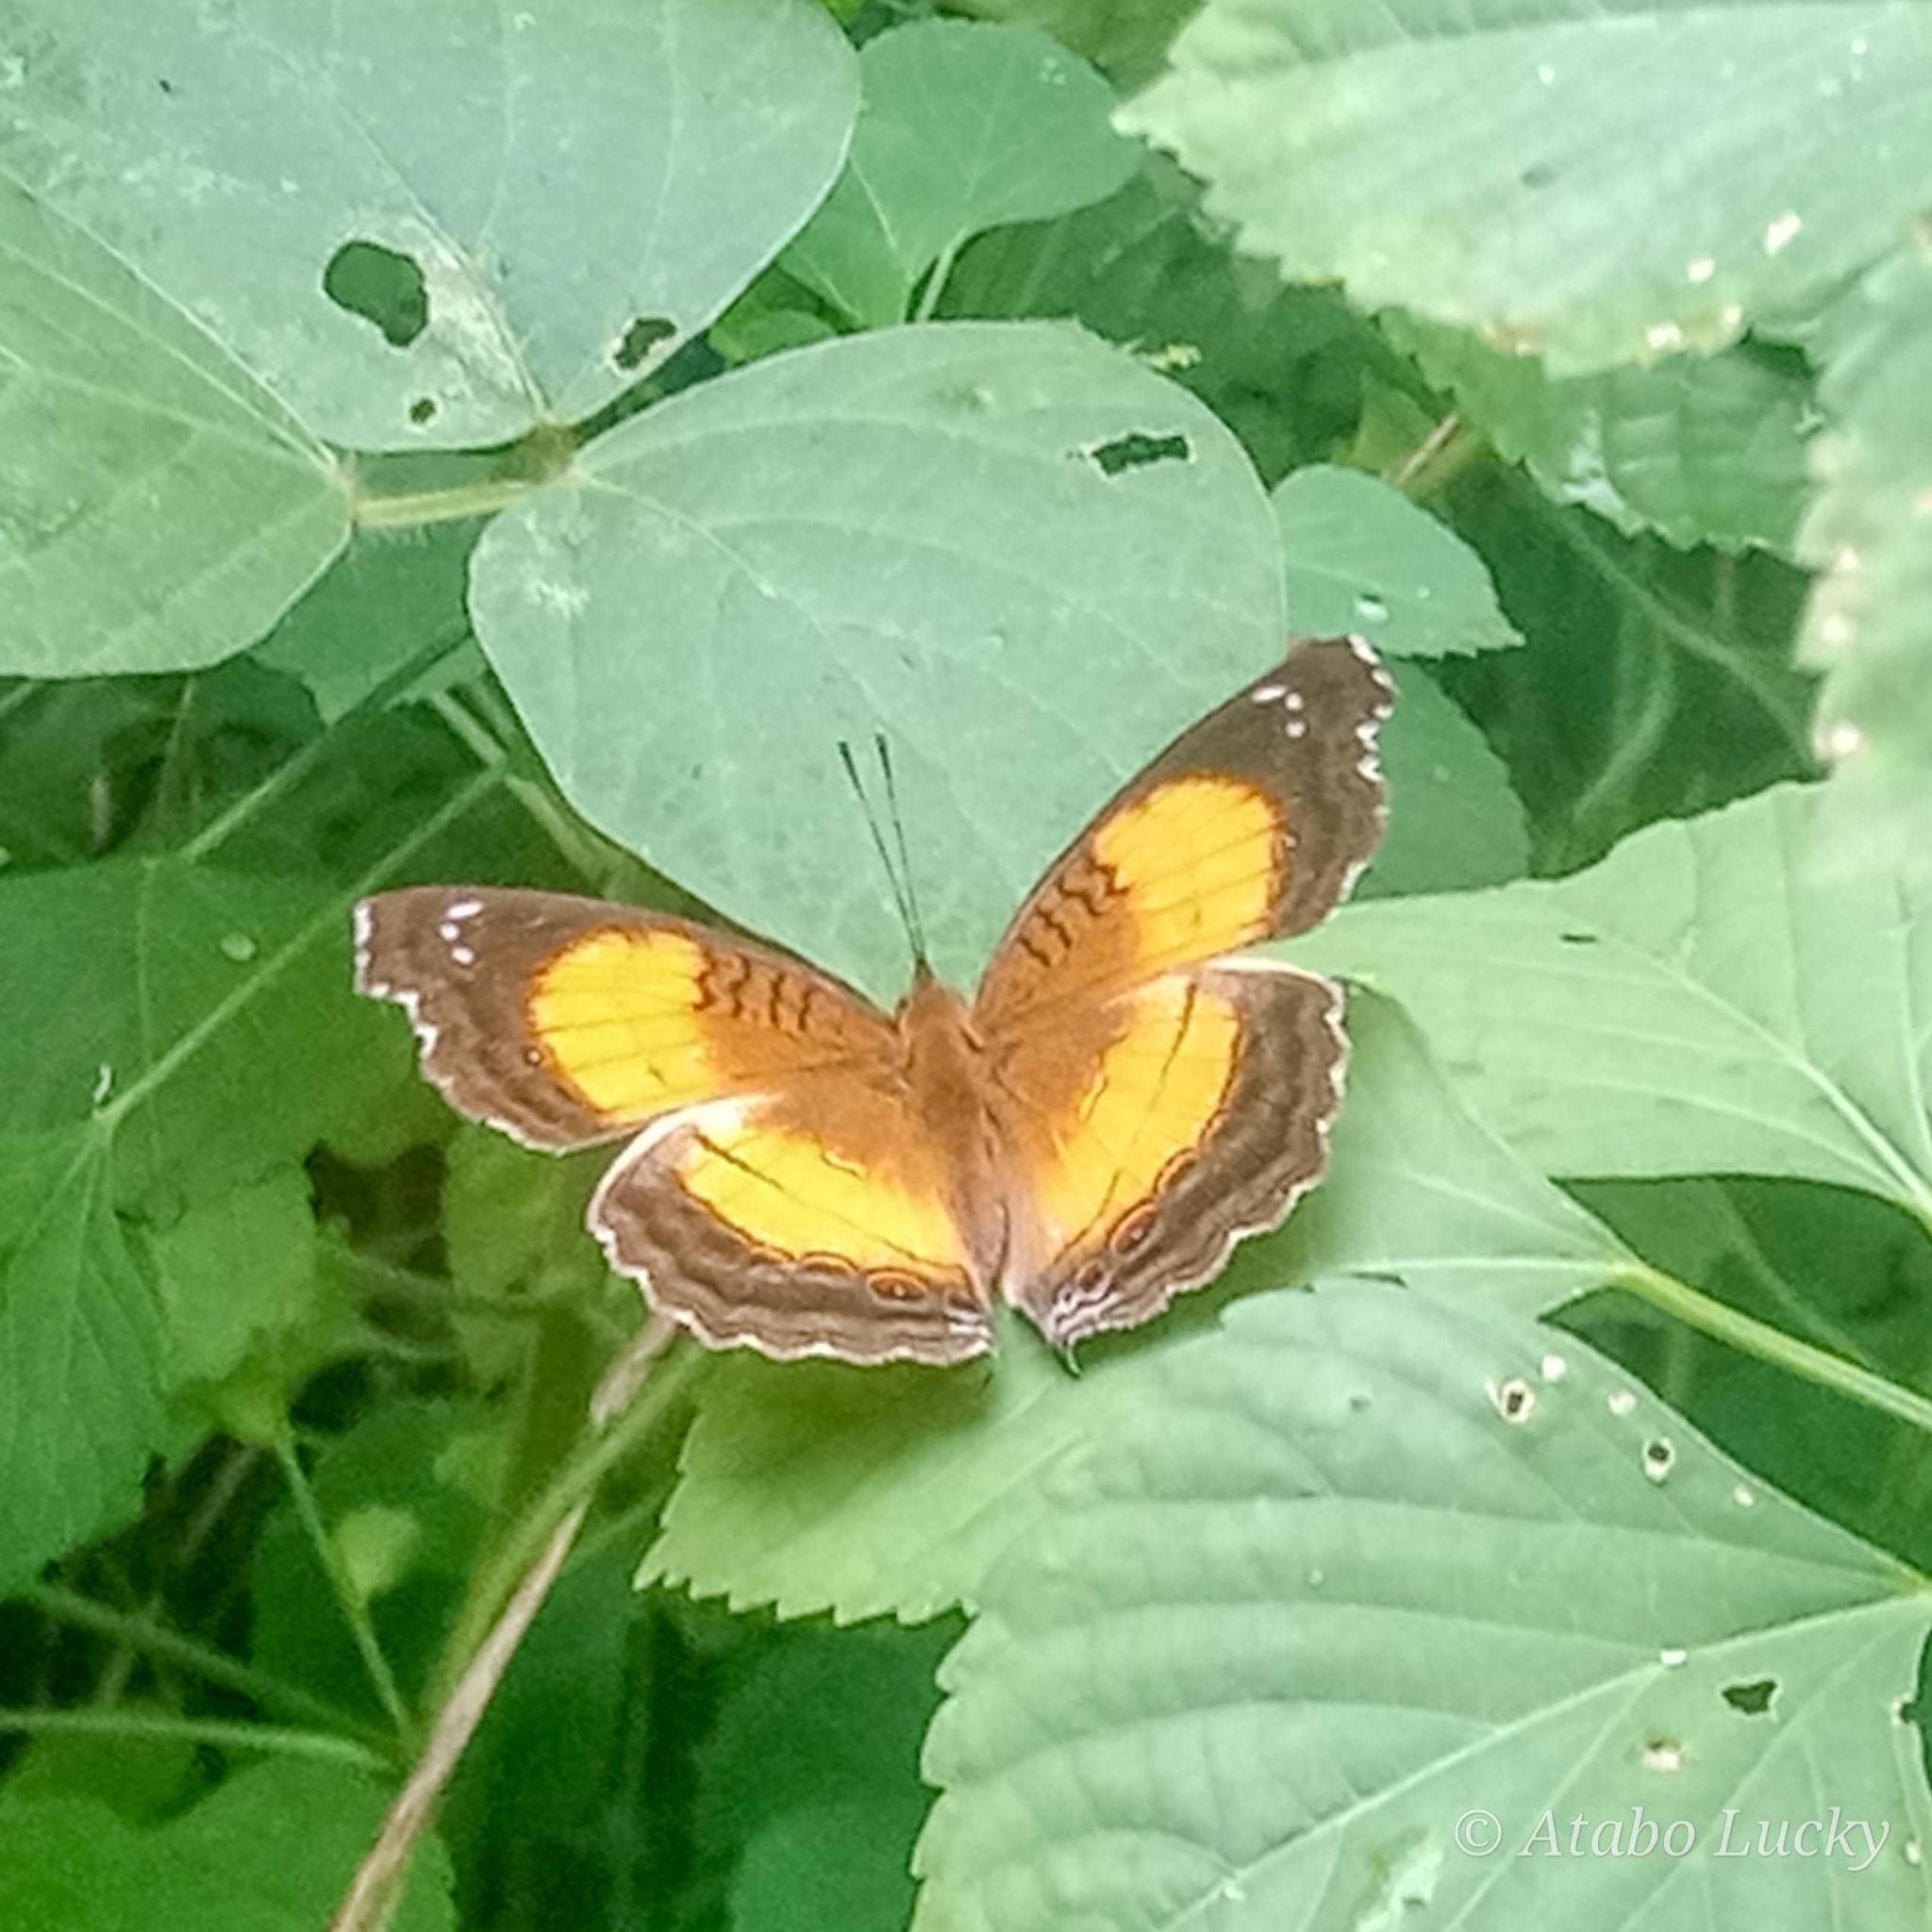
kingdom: Animalia
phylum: Arthropoda
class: Insecta
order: Lepidoptera
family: Nymphalidae
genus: Junonia
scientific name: Junonia terea
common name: Soldier pansy
